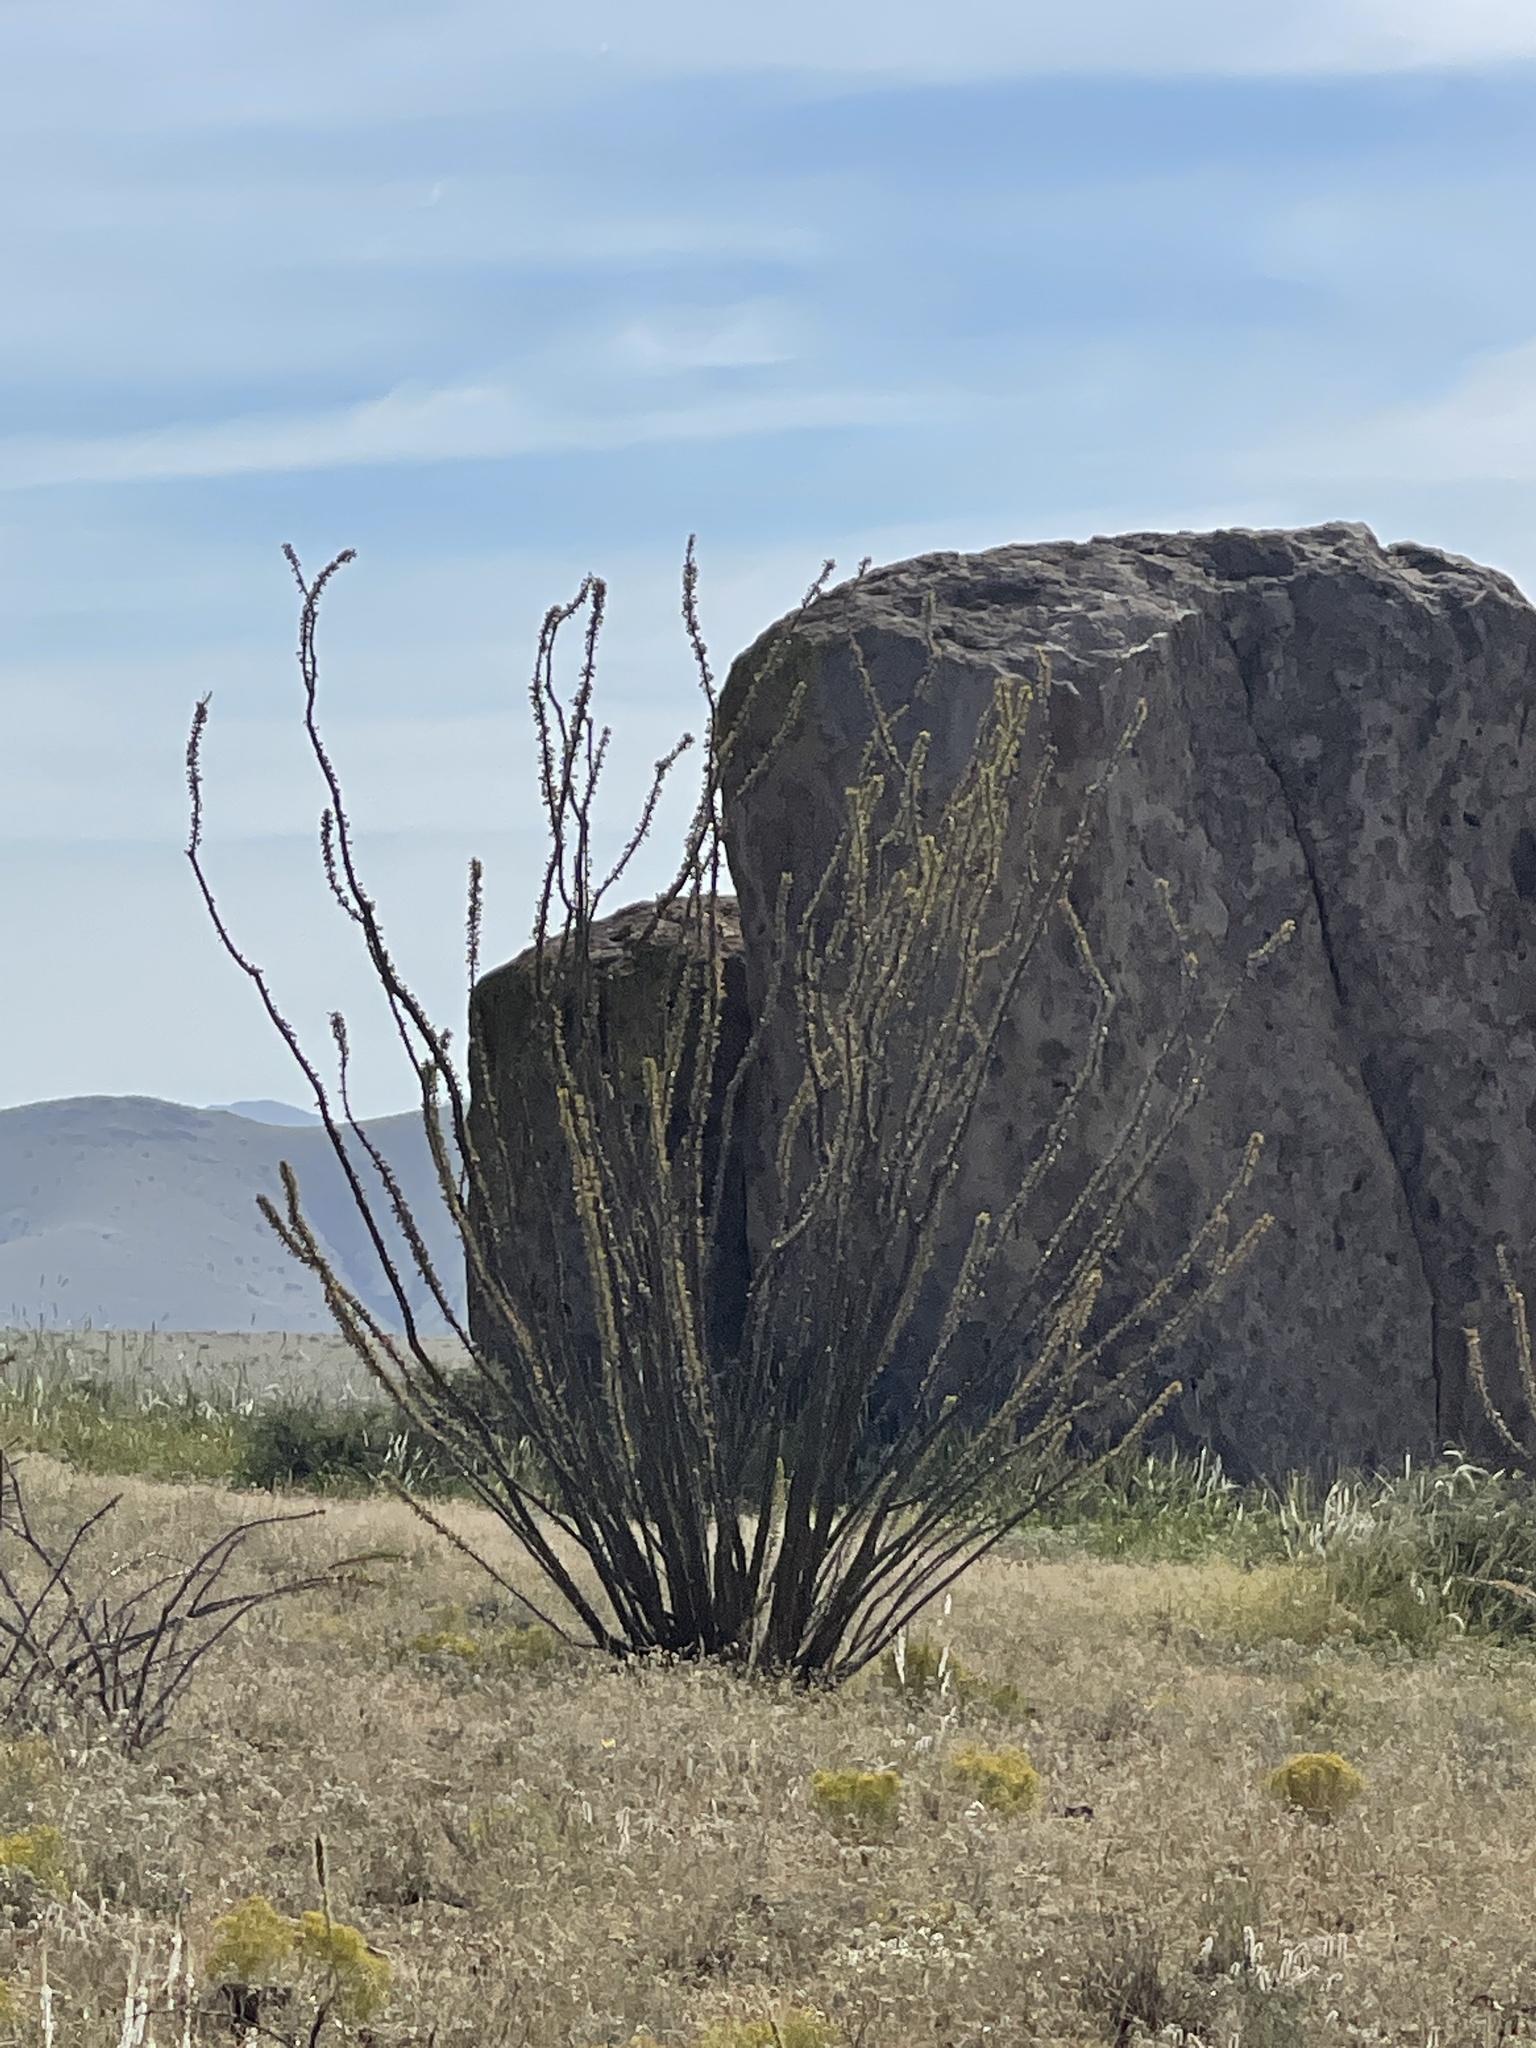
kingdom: Plantae
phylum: Tracheophyta
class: Magnoliopsida
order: Ericales
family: Fouquieriaceae
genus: Fouquieria
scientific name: Fouquieria splendens
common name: Vine-cactus
